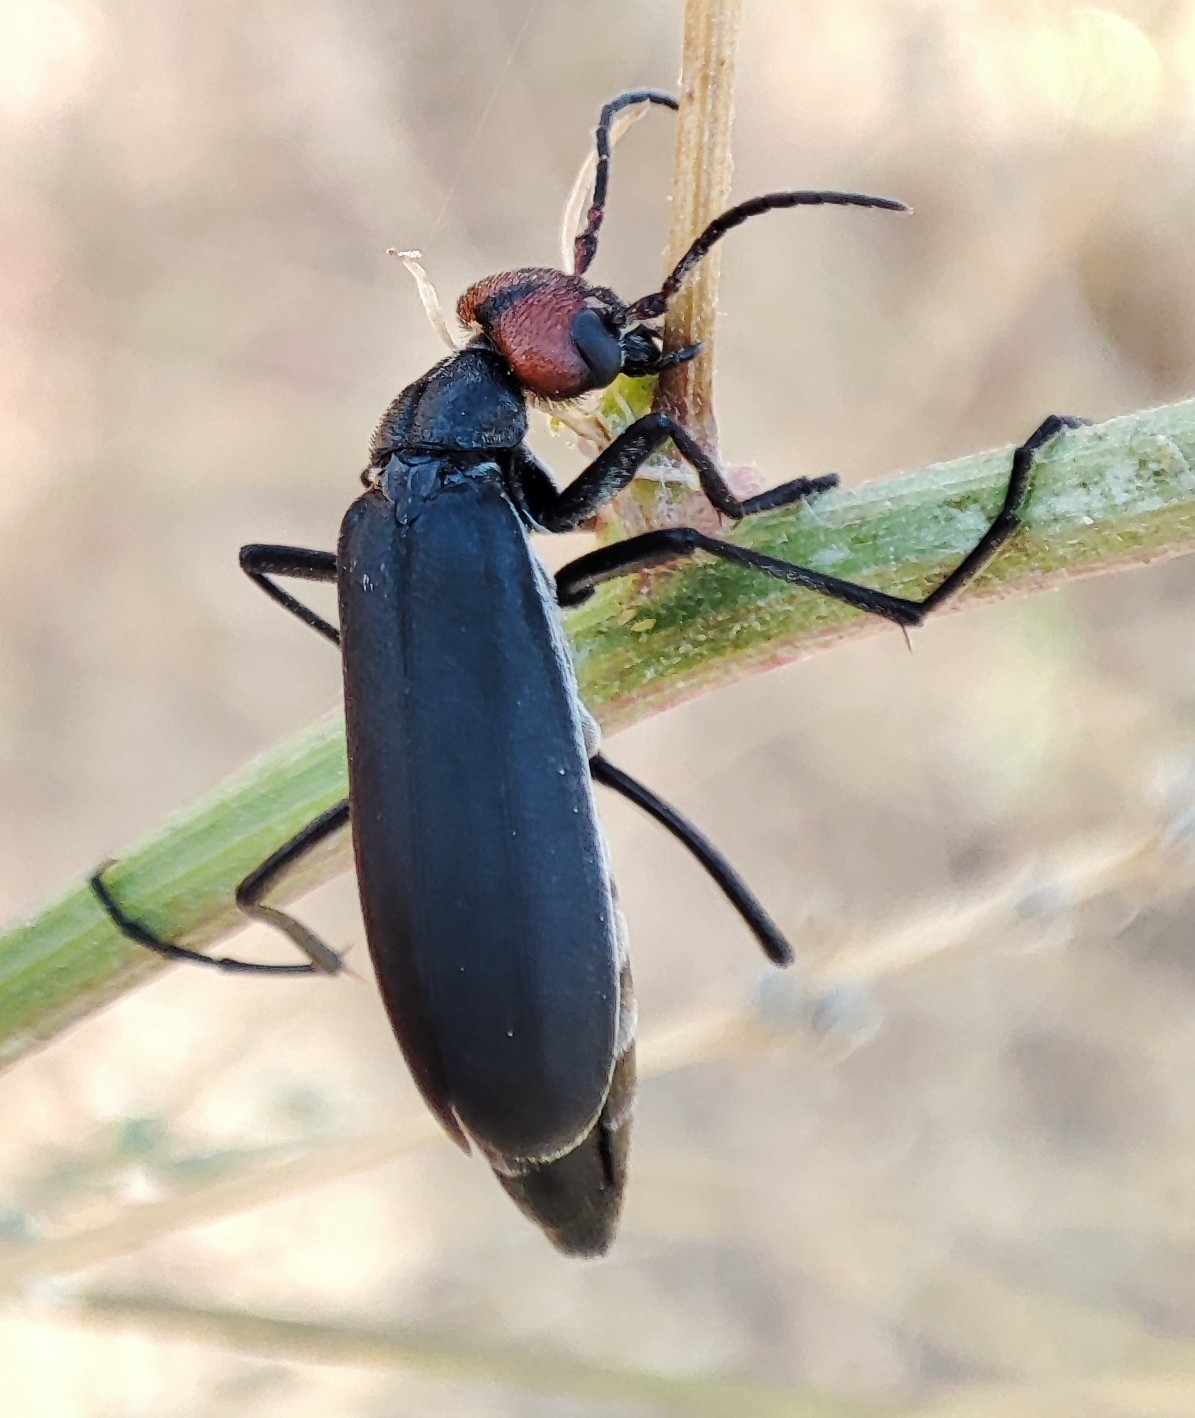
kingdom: Animalia
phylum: Arthropoda
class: Insecta
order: Coleoptera
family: Meloidae
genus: Epicauta
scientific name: Epicauta rufidorsum
